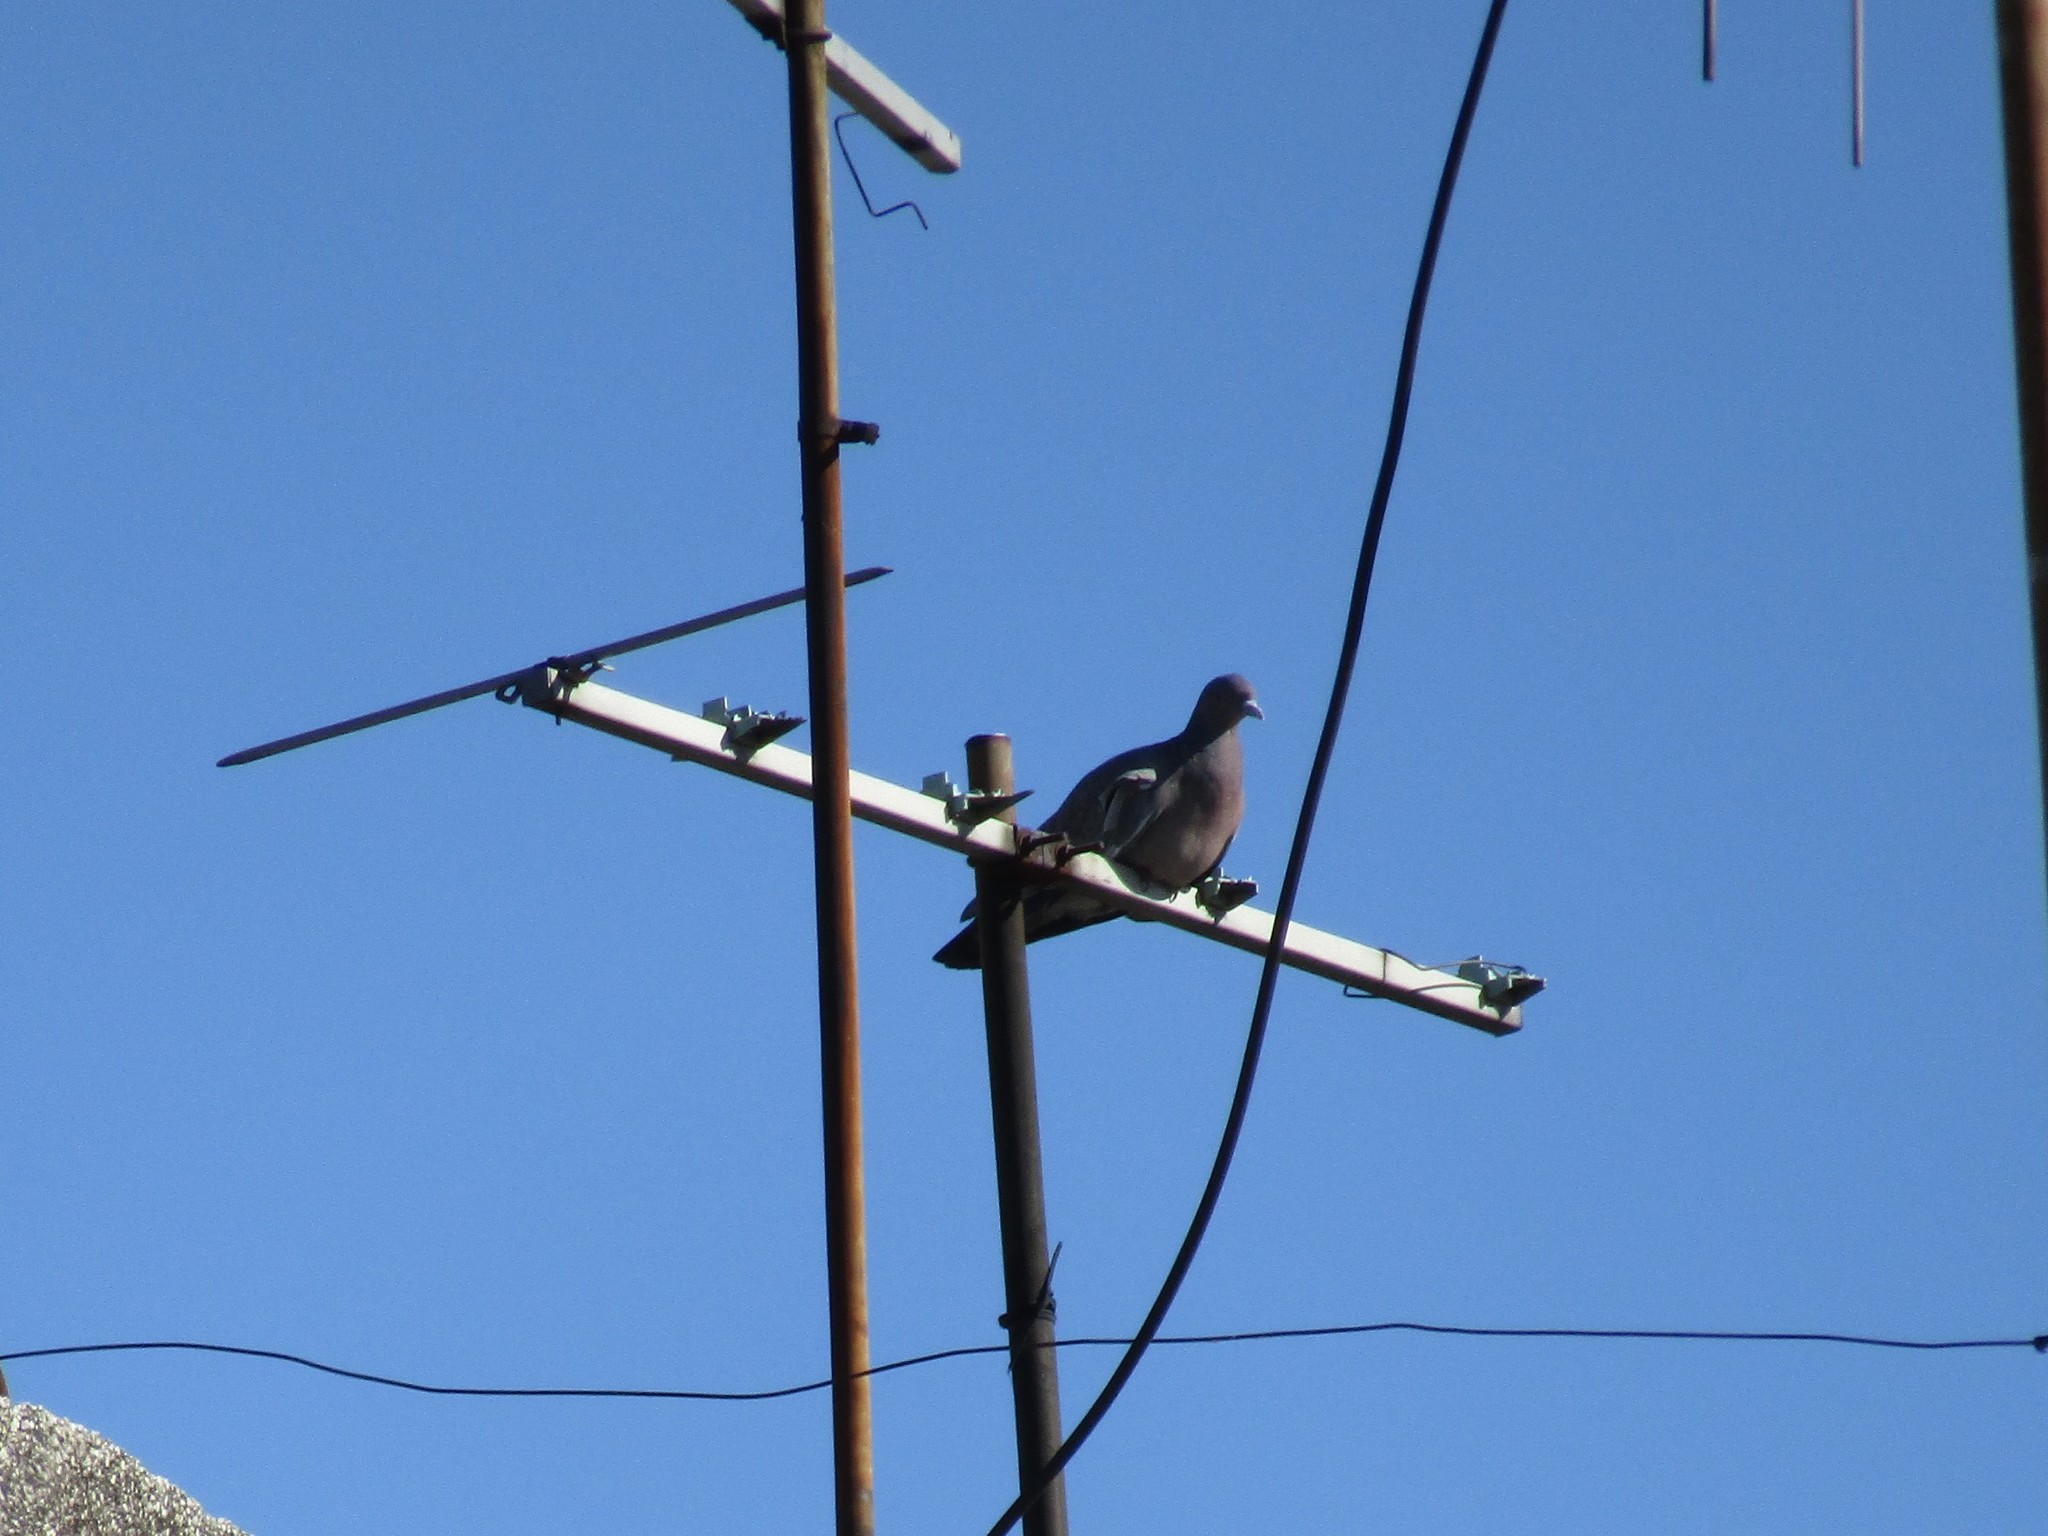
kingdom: Animalia
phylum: Chordata
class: Aves
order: Columbiformes
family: Columbidae
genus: Patagioenas
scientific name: Patagioenas picazuro
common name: Picazuro pigeon
